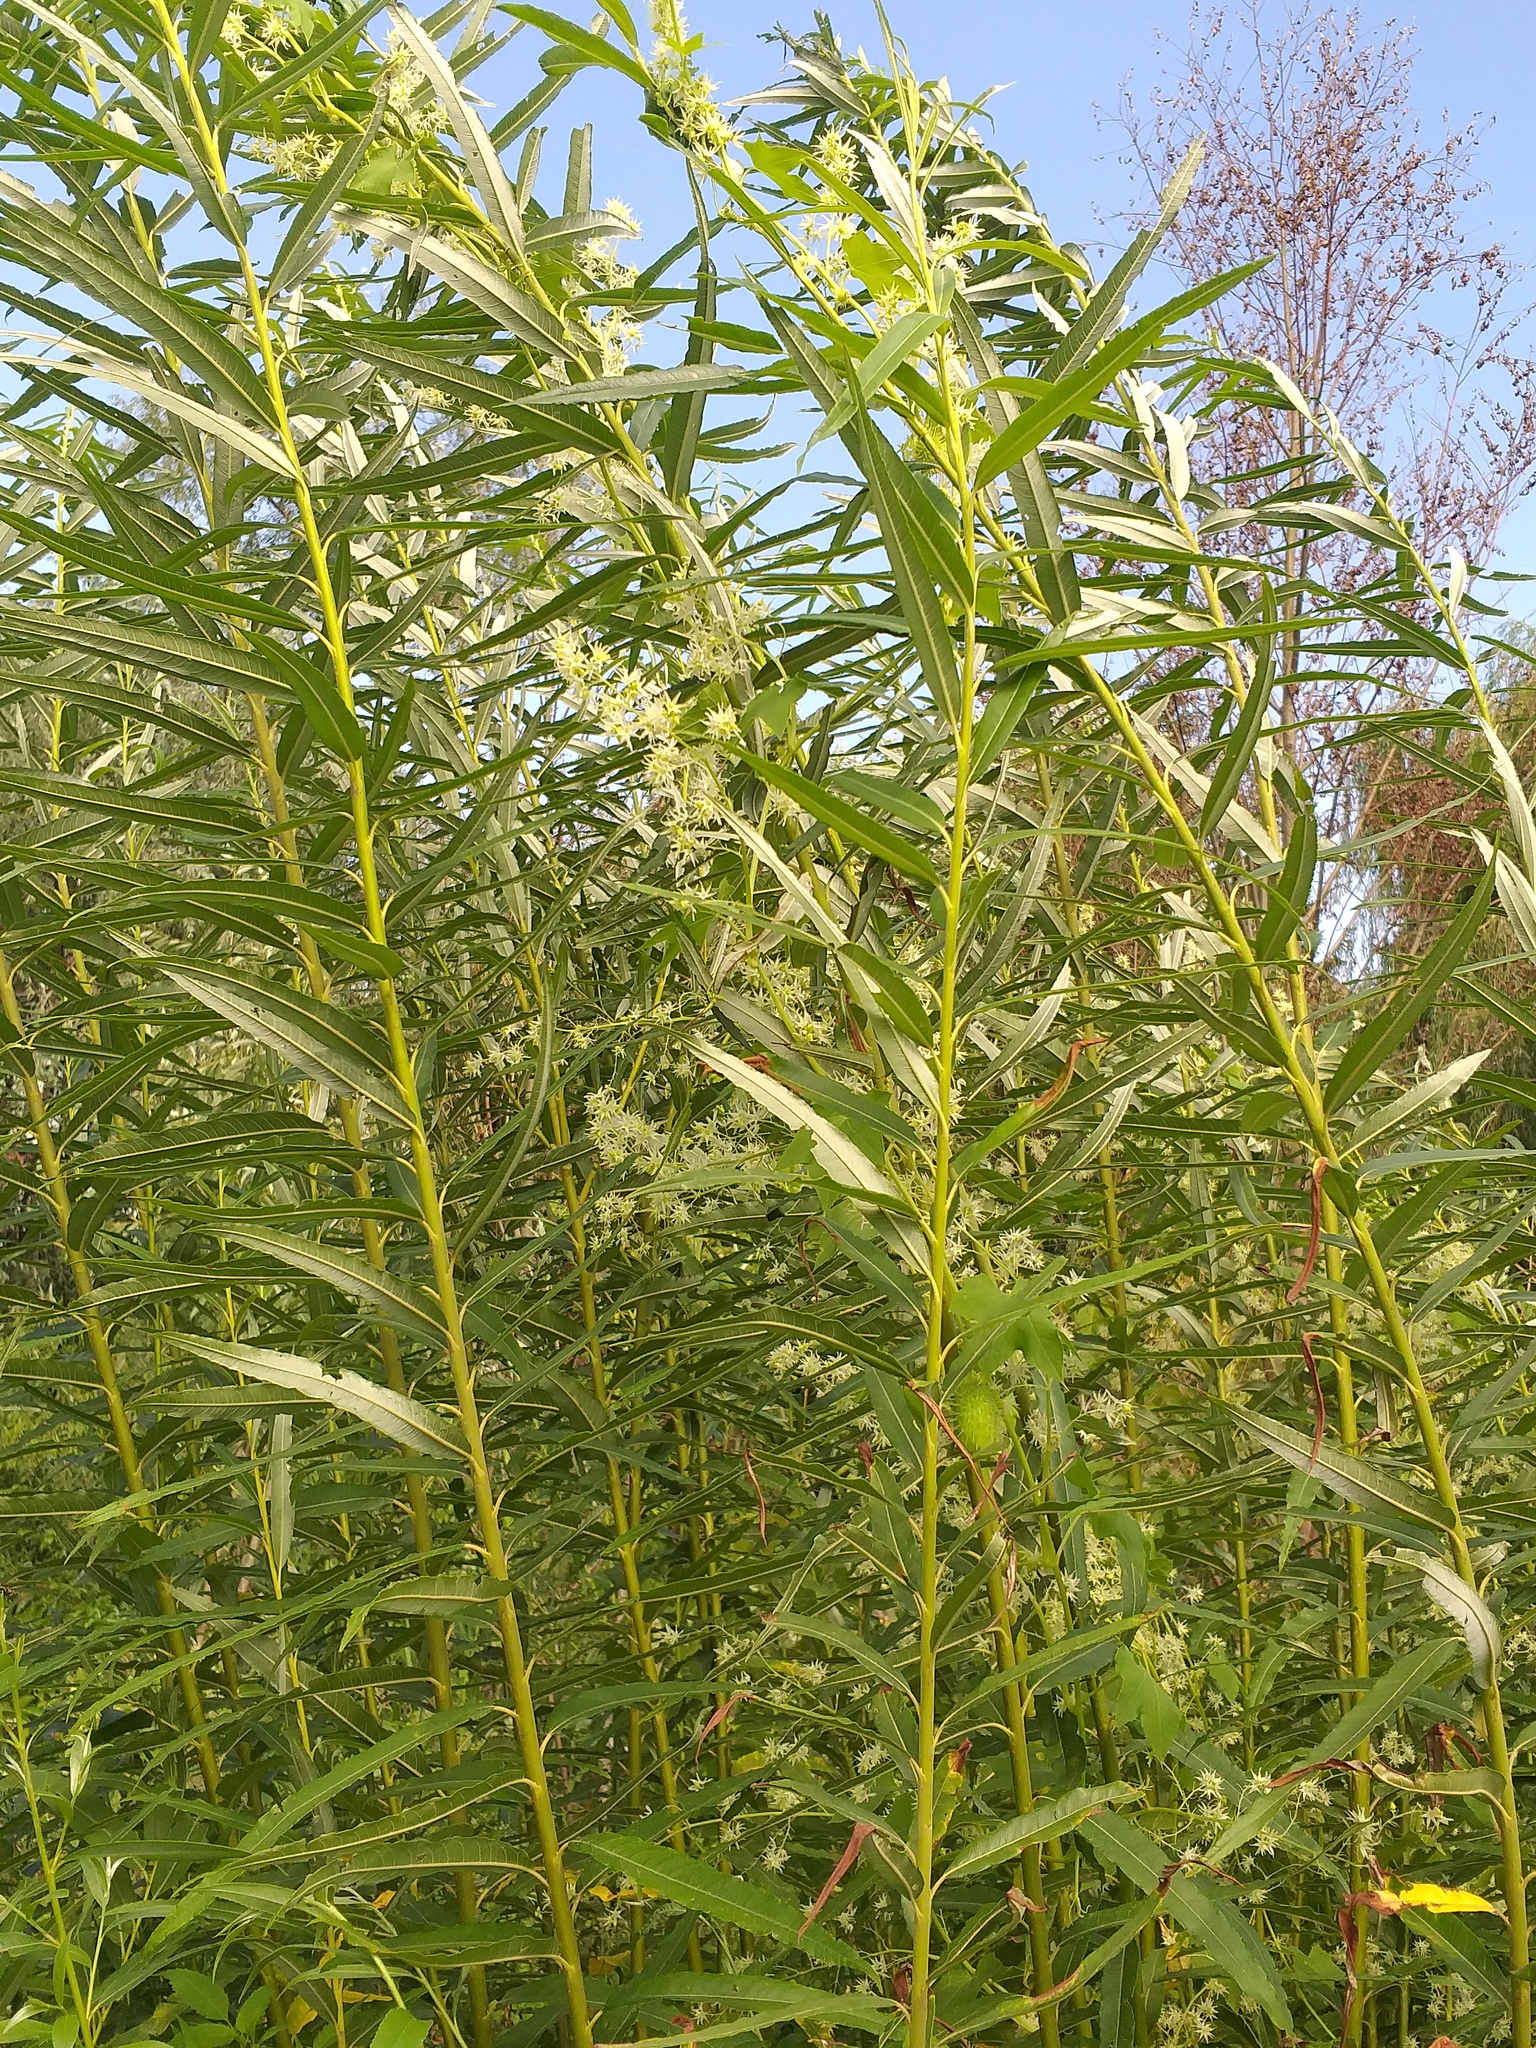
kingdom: Plantae
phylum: Tracheophyta
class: Magnoliopsida
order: Cucurbitales
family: Cucurbitaceae
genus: Echinocystis
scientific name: Echinocystis lobata
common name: Wild cucumber
